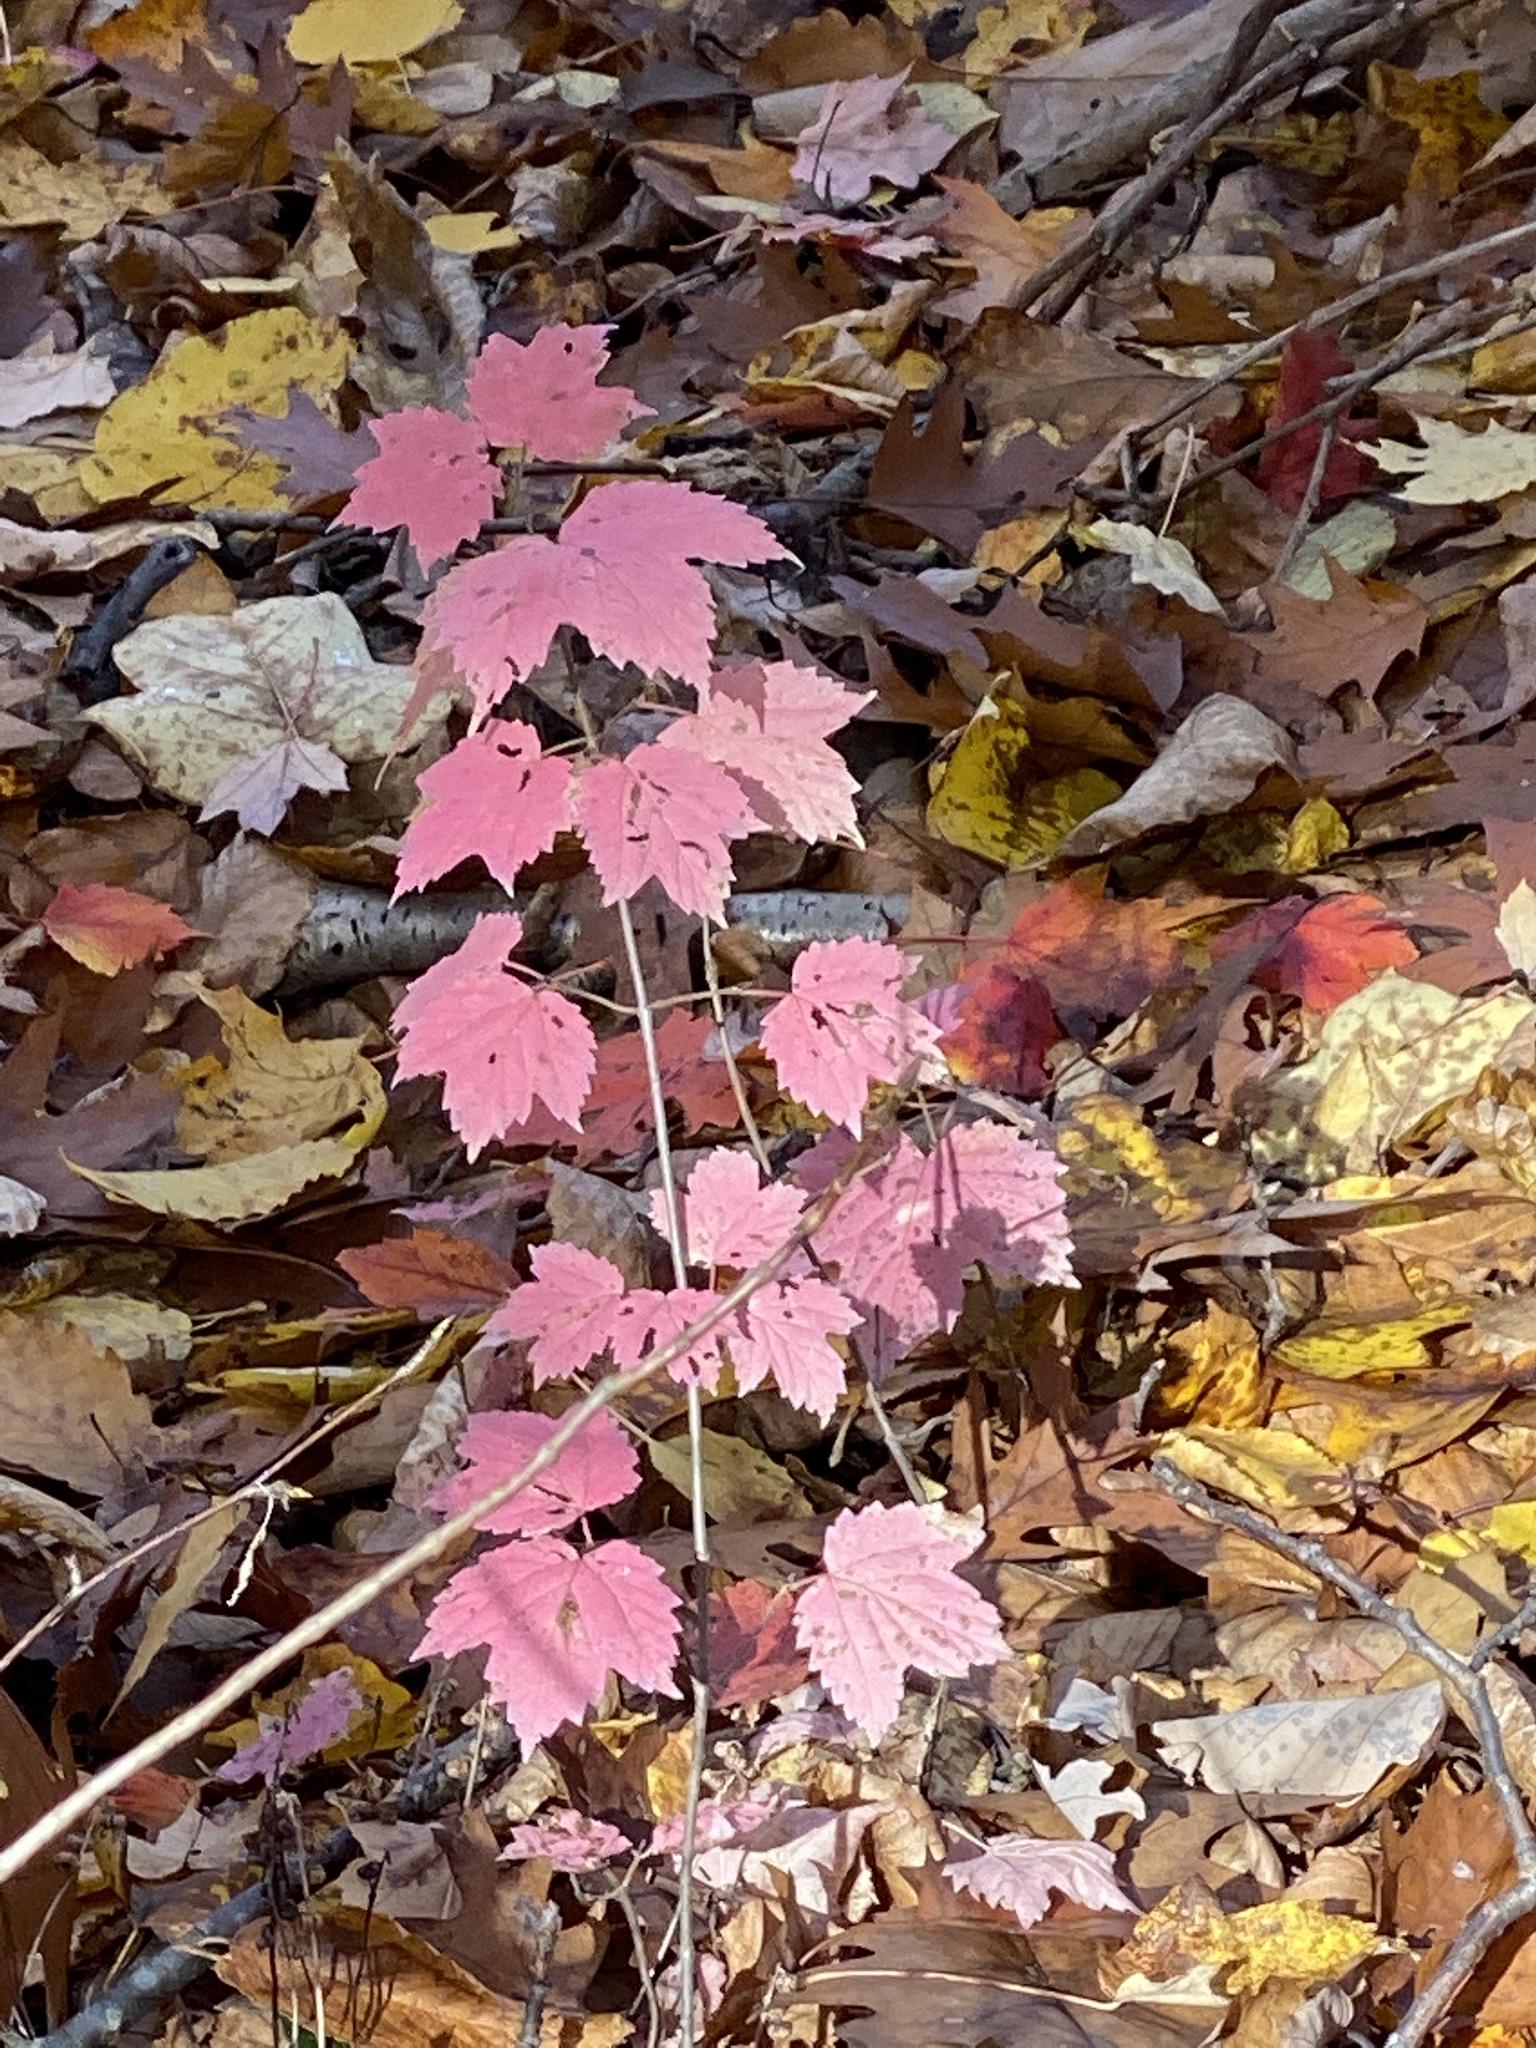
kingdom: Plantae
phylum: Tracheophyta
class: Magnoliopsida
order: Dipsacales
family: Viburnaceae
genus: Viburnum
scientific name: Viburnum acerifolium
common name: Dockmackie
